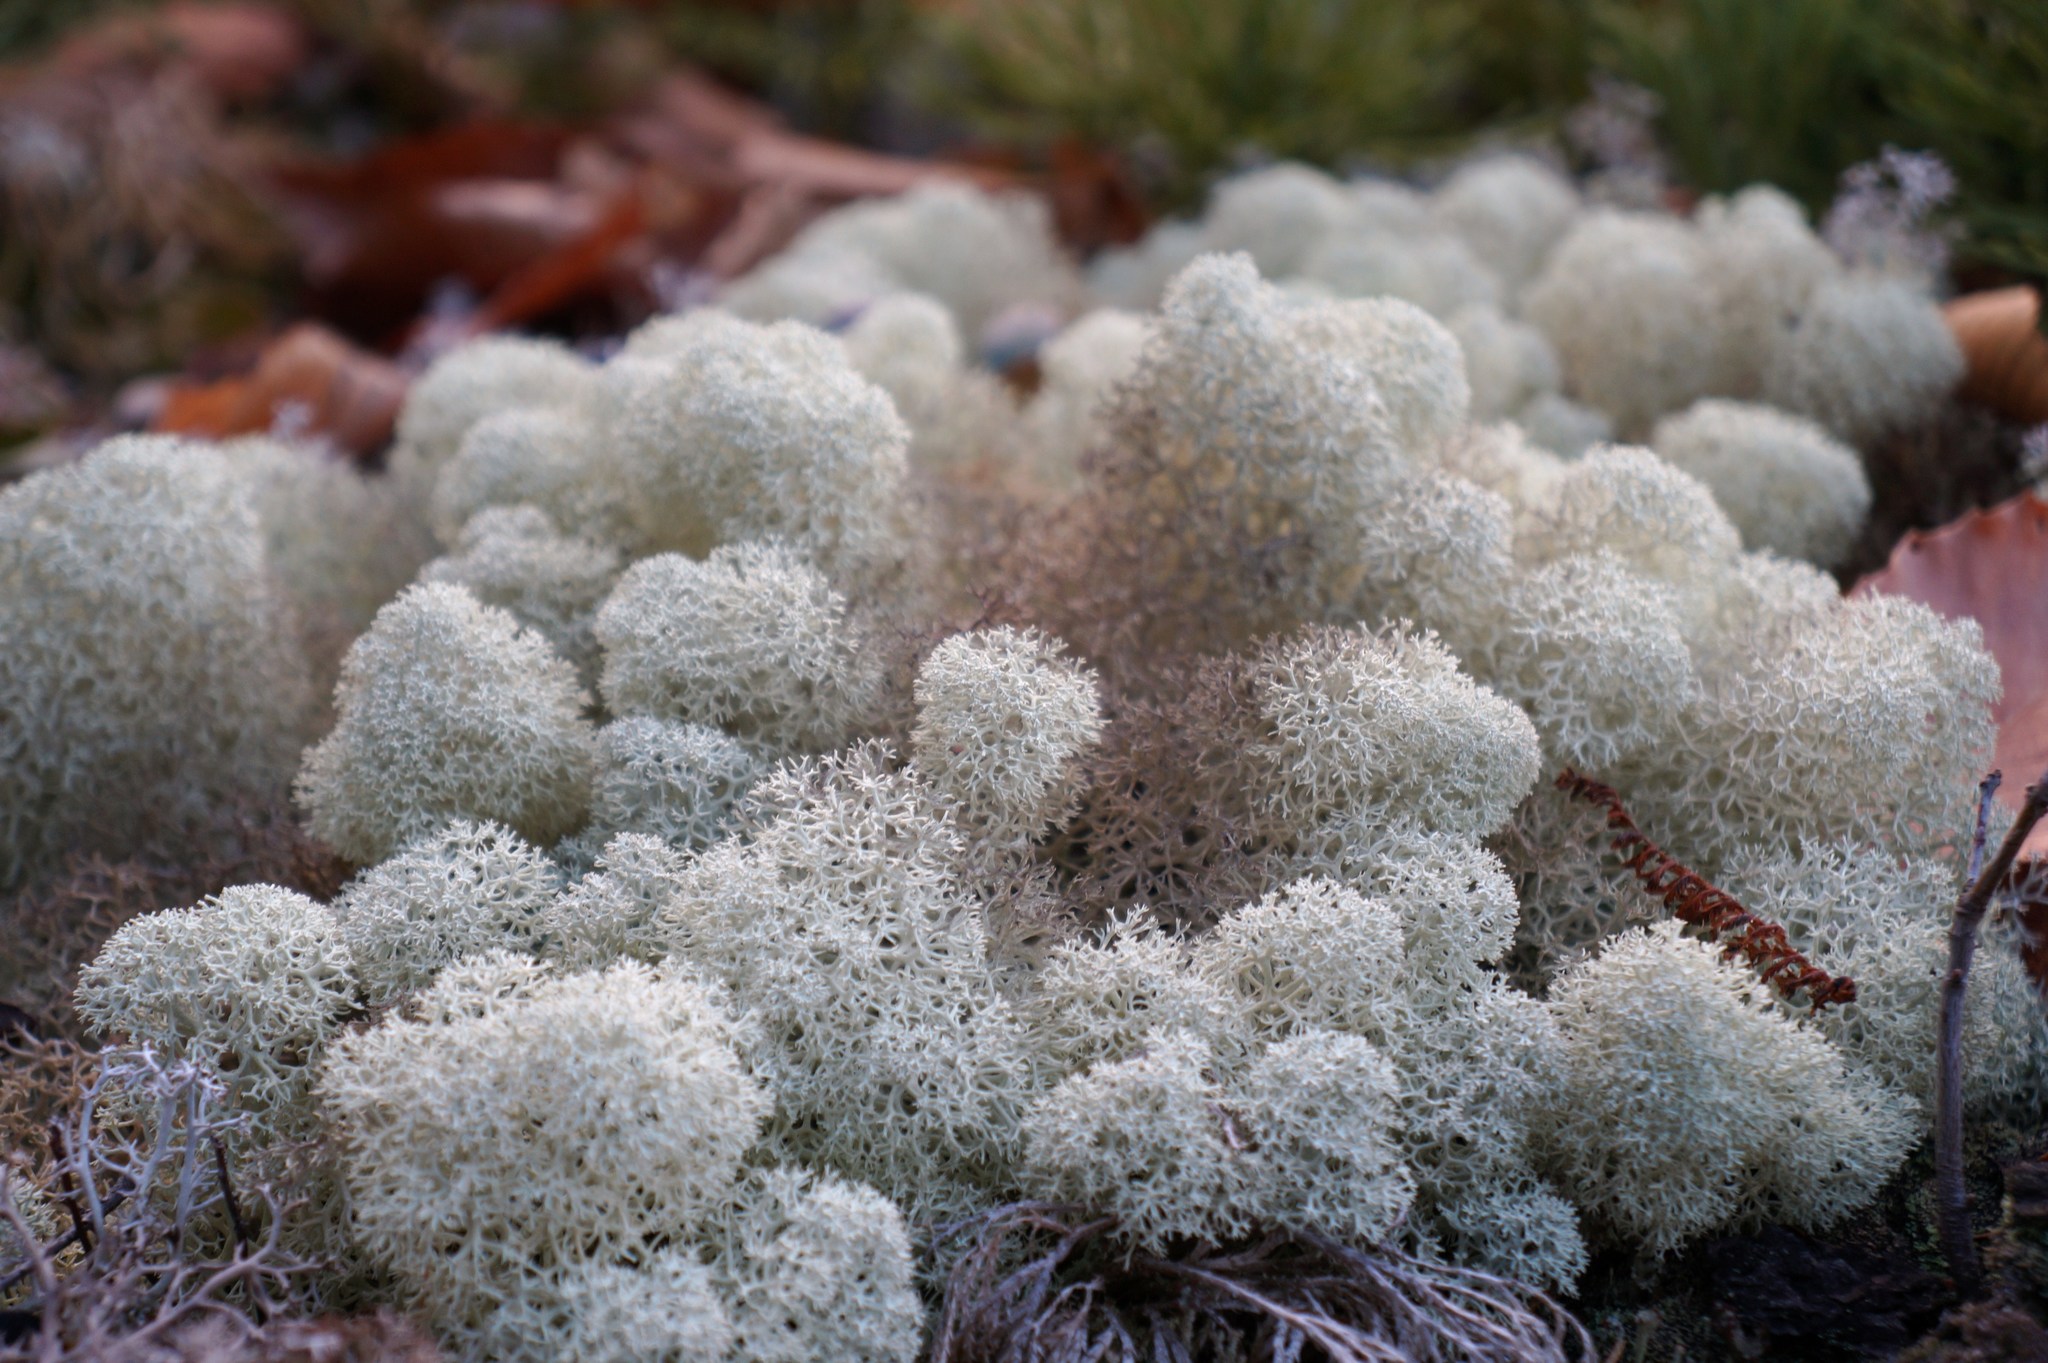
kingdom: Fungi
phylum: Ascomycota
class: Lecanoromycetes
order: Lecanorales
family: Cladoniaceae
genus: Cladonia
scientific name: Cladonia stellaris
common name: Star-tipped reindeer lichen
